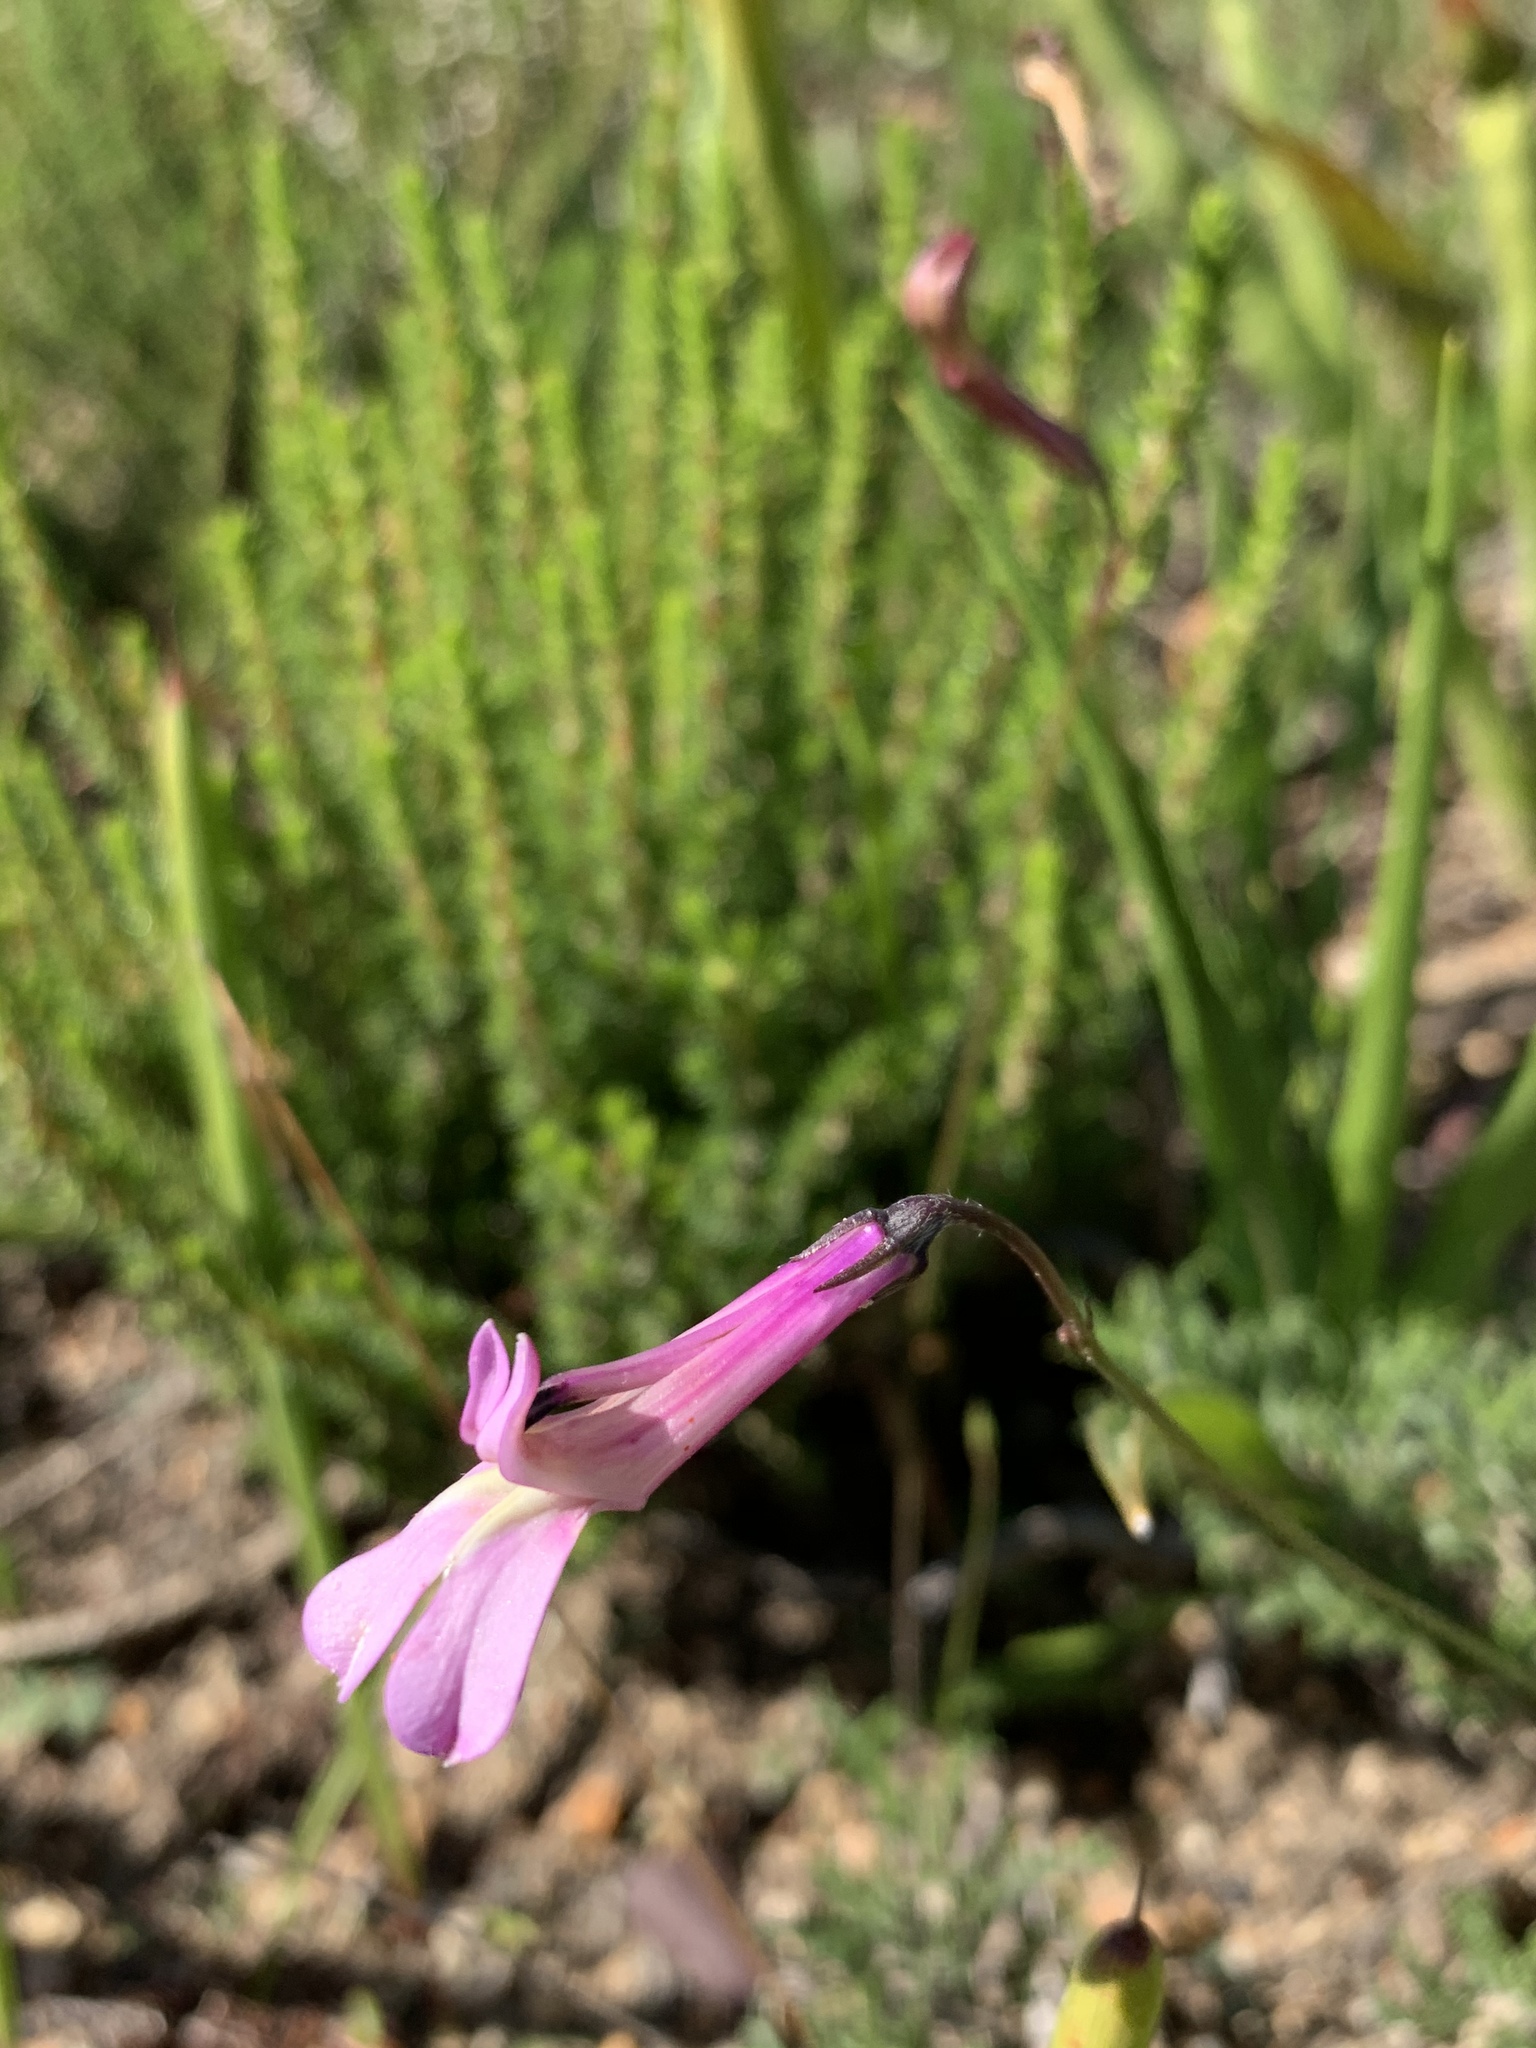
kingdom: Plantae
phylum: Tracheophyta
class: Magnoliopsida
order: Asterales
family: Campanulaceae
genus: Lobelia
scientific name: Lobelia coronopifolia
